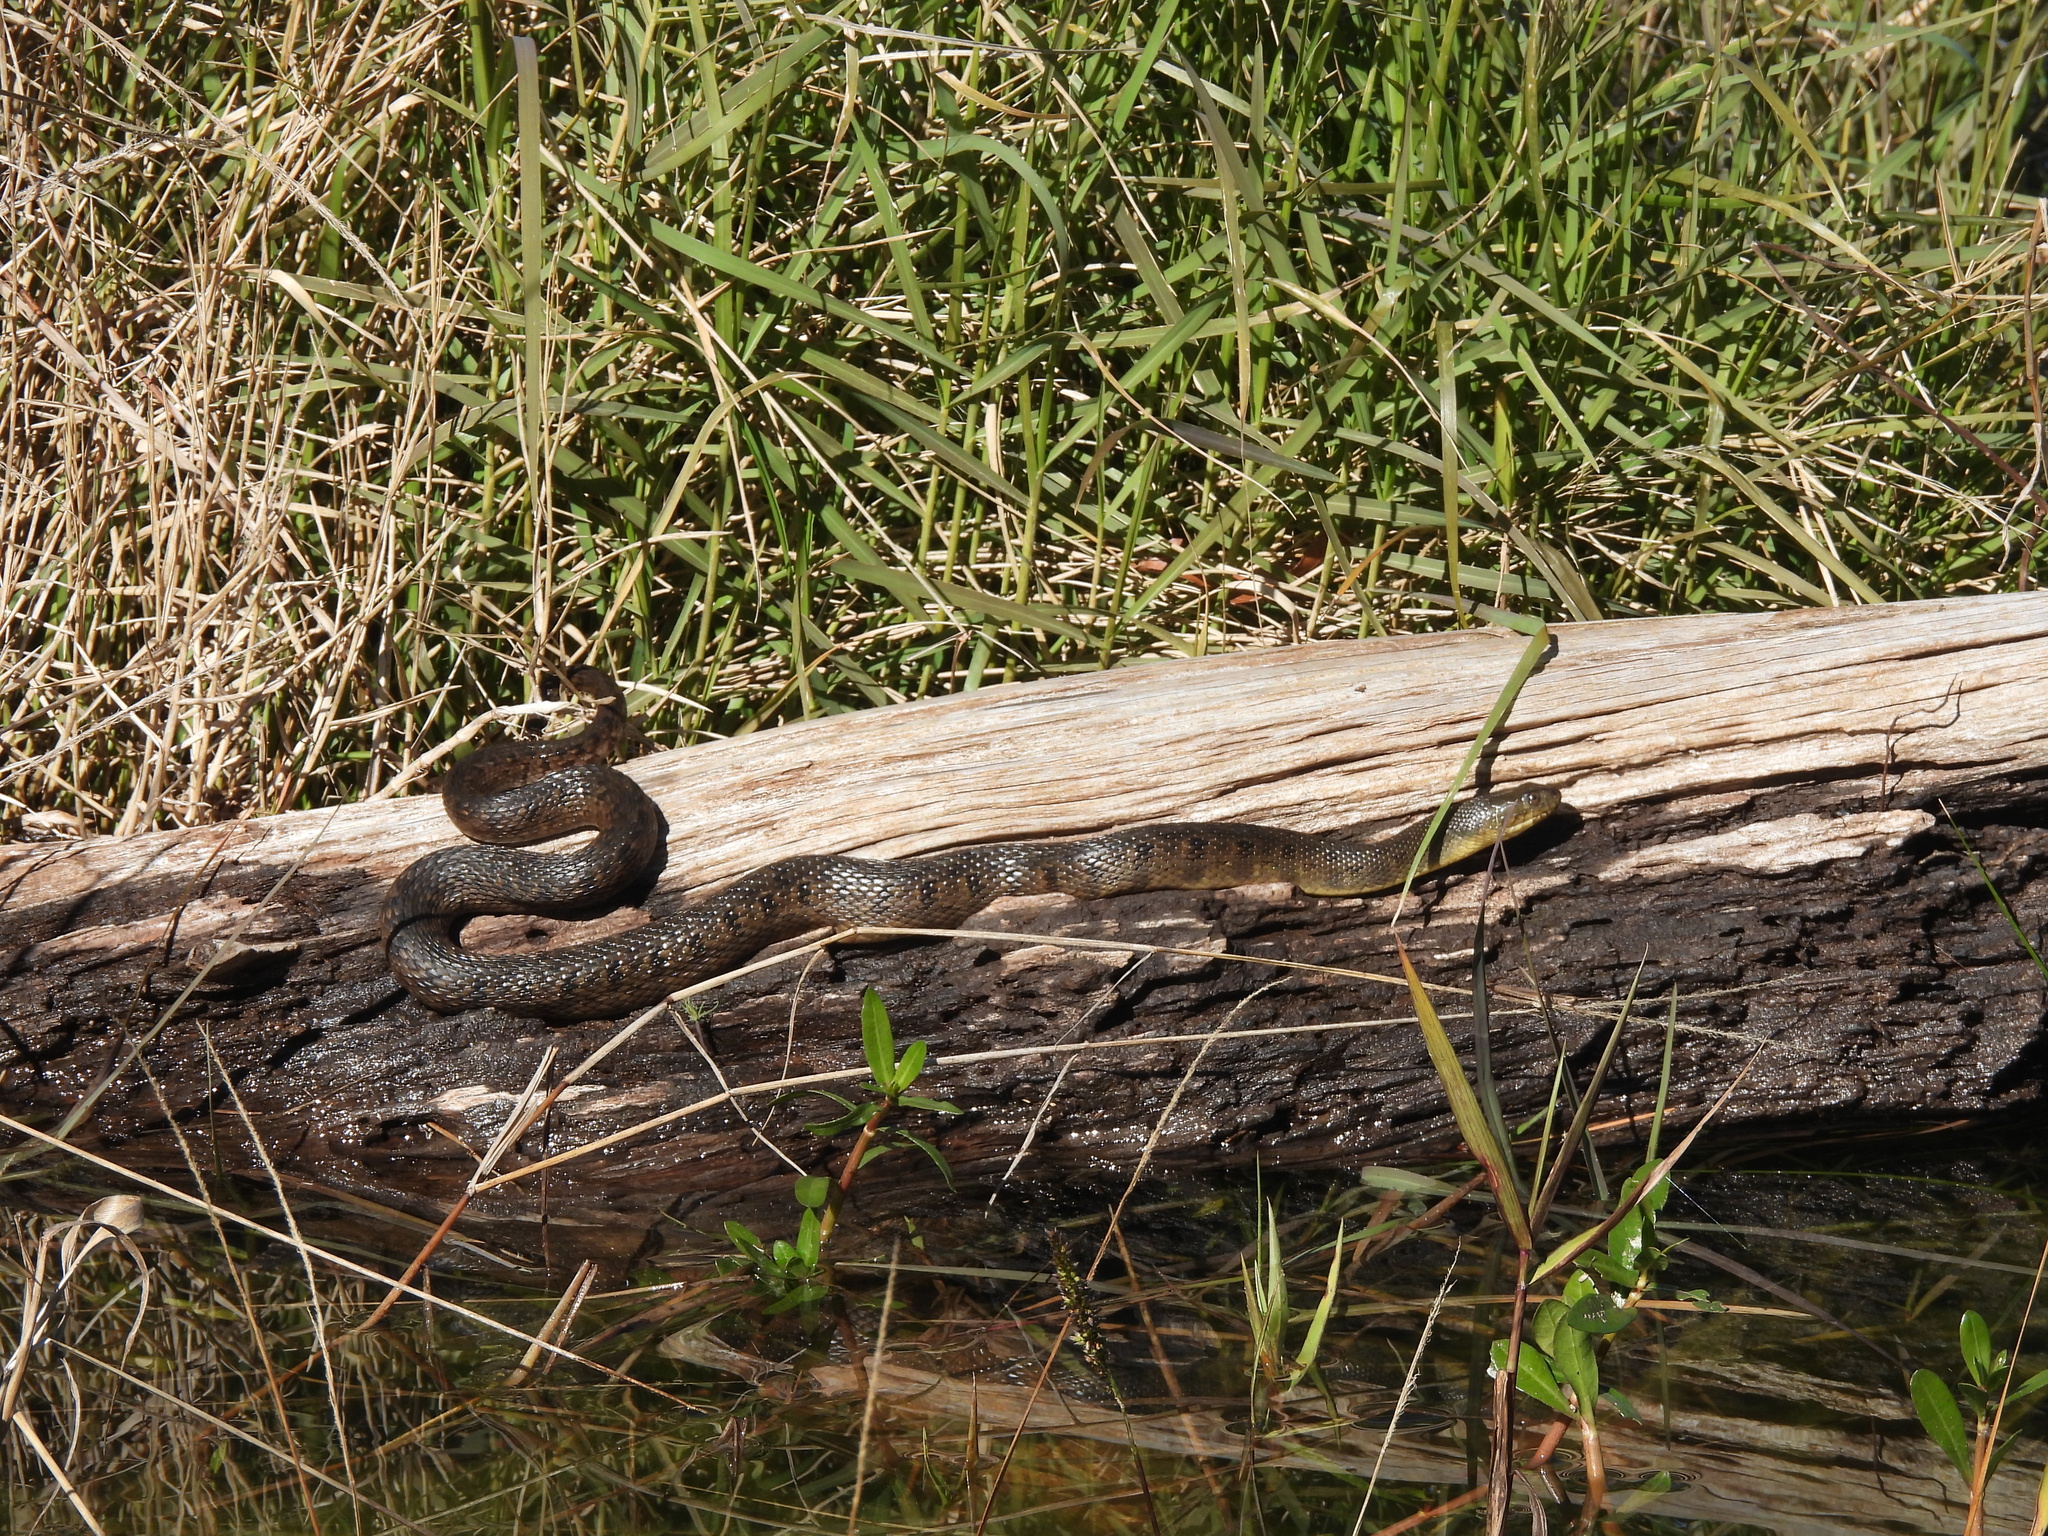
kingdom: Animalia
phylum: Chordata
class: Squamata
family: Colubridae
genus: Nerodia
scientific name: Nerodia cyclopion
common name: Mississippi green water snake
